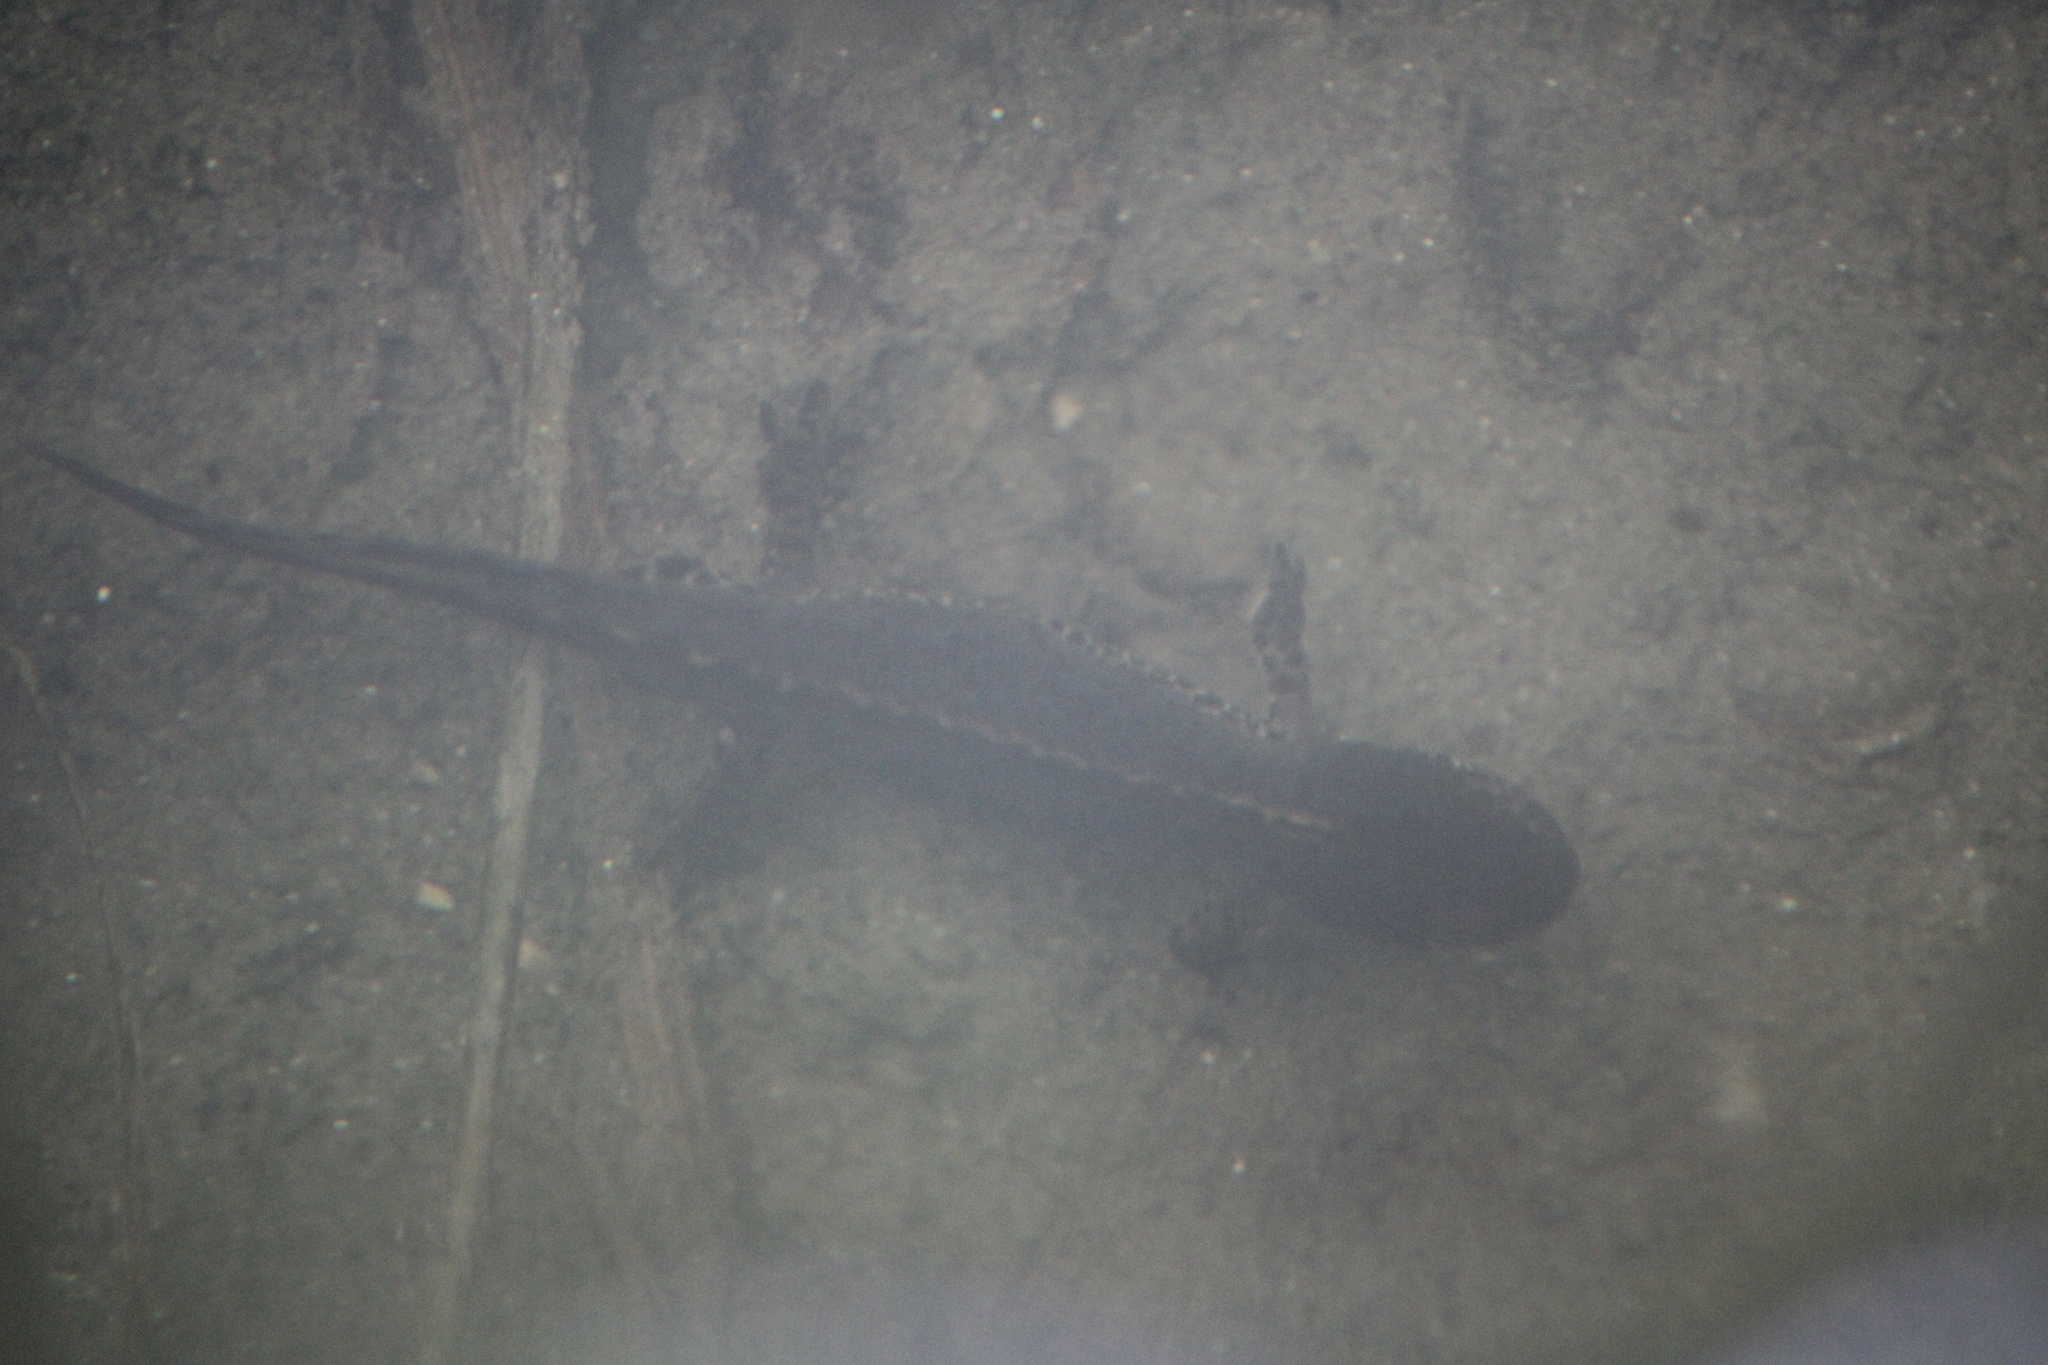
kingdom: Animalia
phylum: Chordata
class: Amphibia
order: Caudata
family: Salamandridae
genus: Ichthyosaura
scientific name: Ichthyosaura alpestris
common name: Alpine newt
